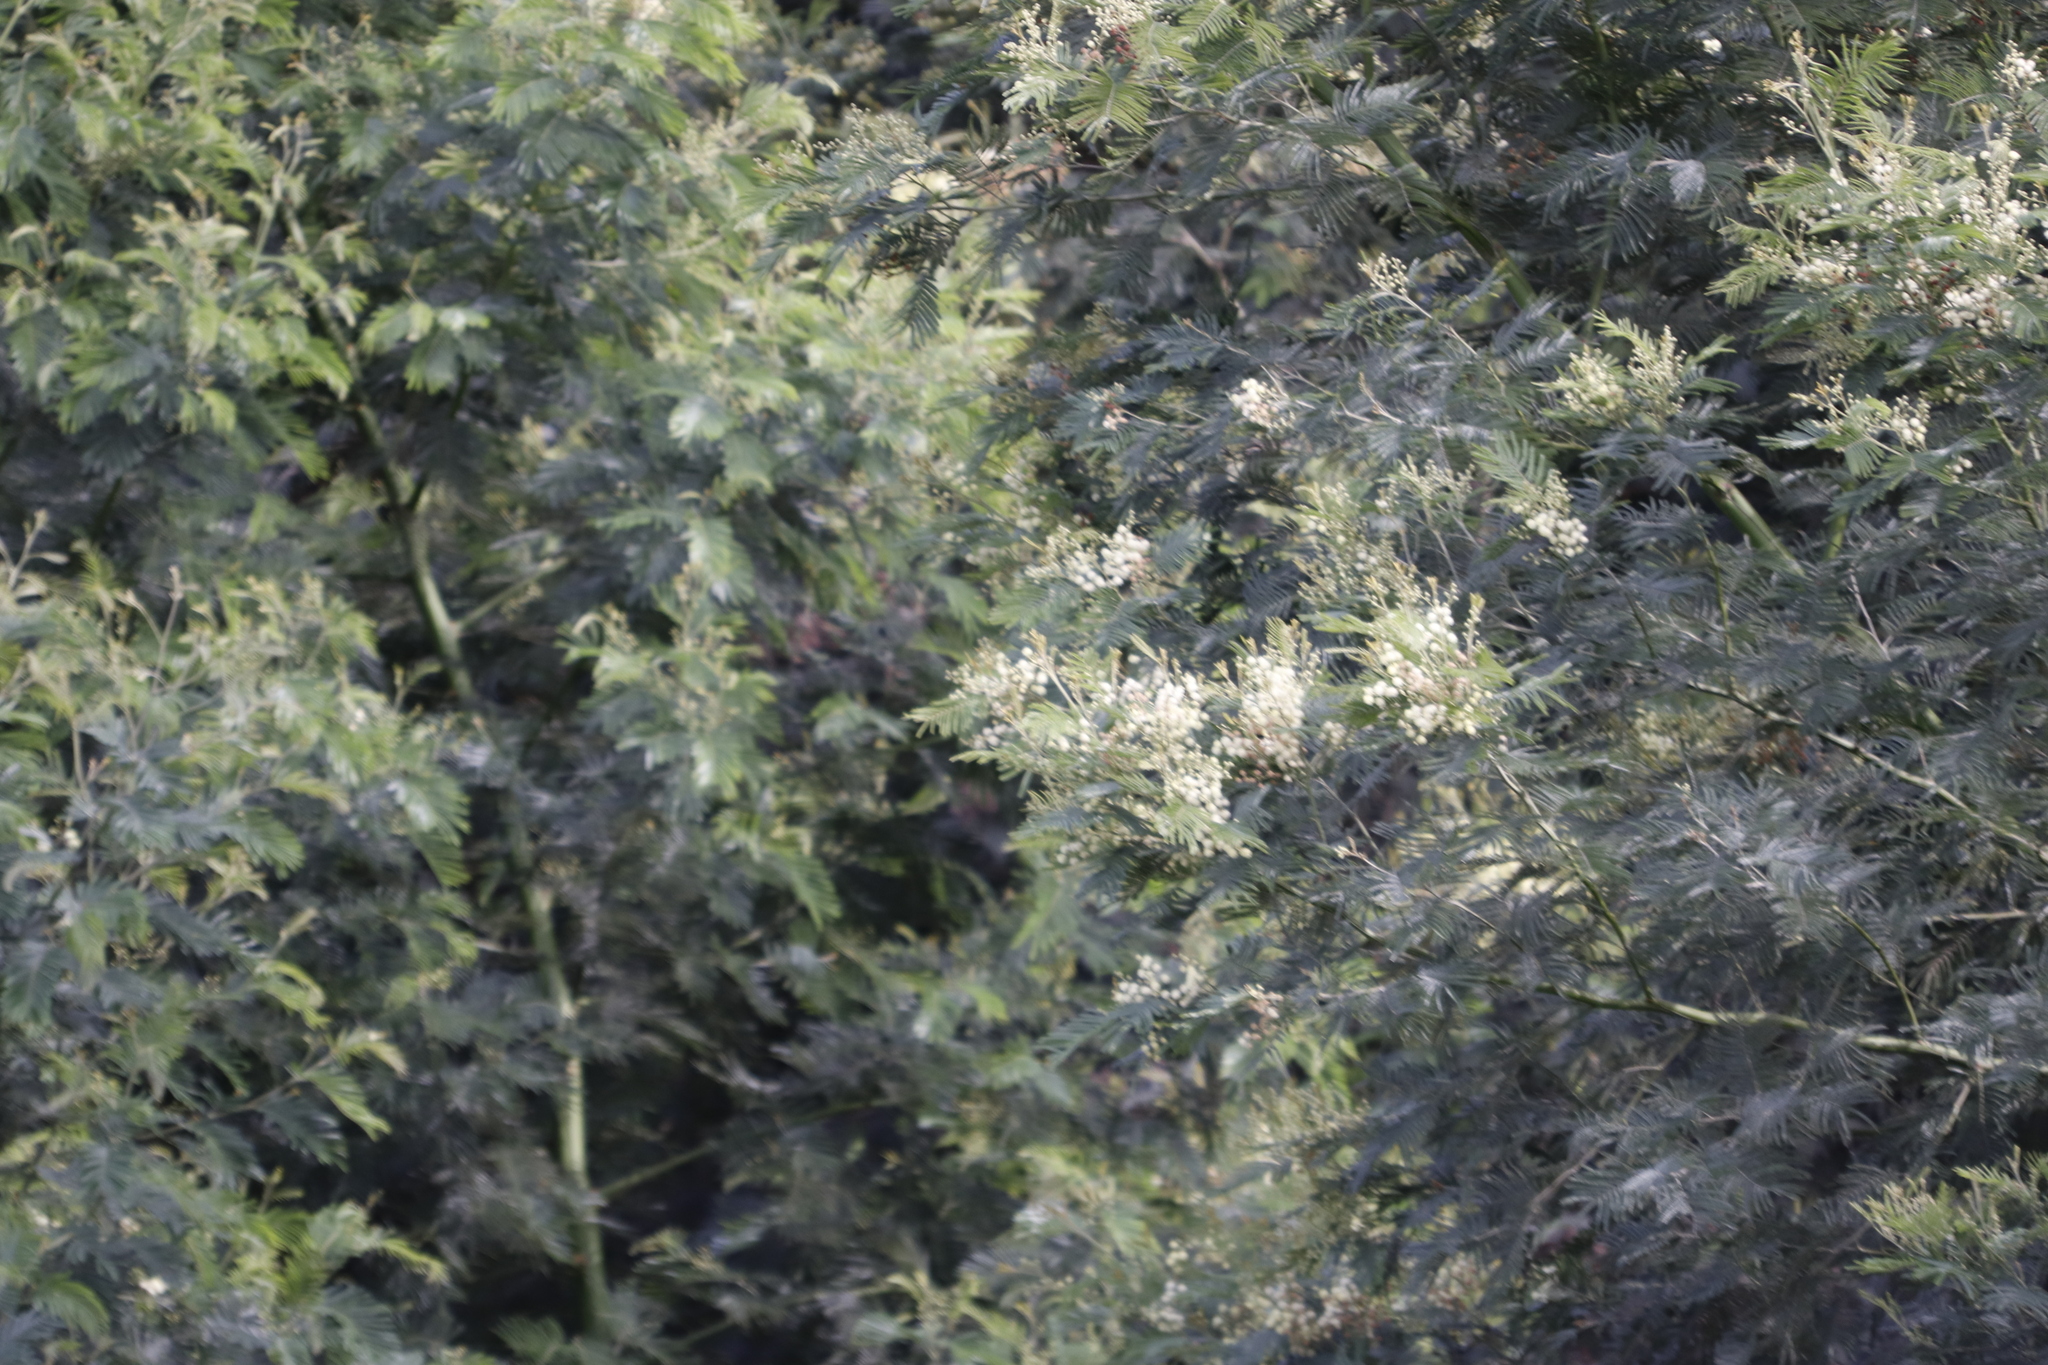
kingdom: Plantae
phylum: Tracheophyta
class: Magnoliopsida
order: Fabales
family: Fabaceae
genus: Acacia
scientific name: Acacia mearnsii
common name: Black wattle
